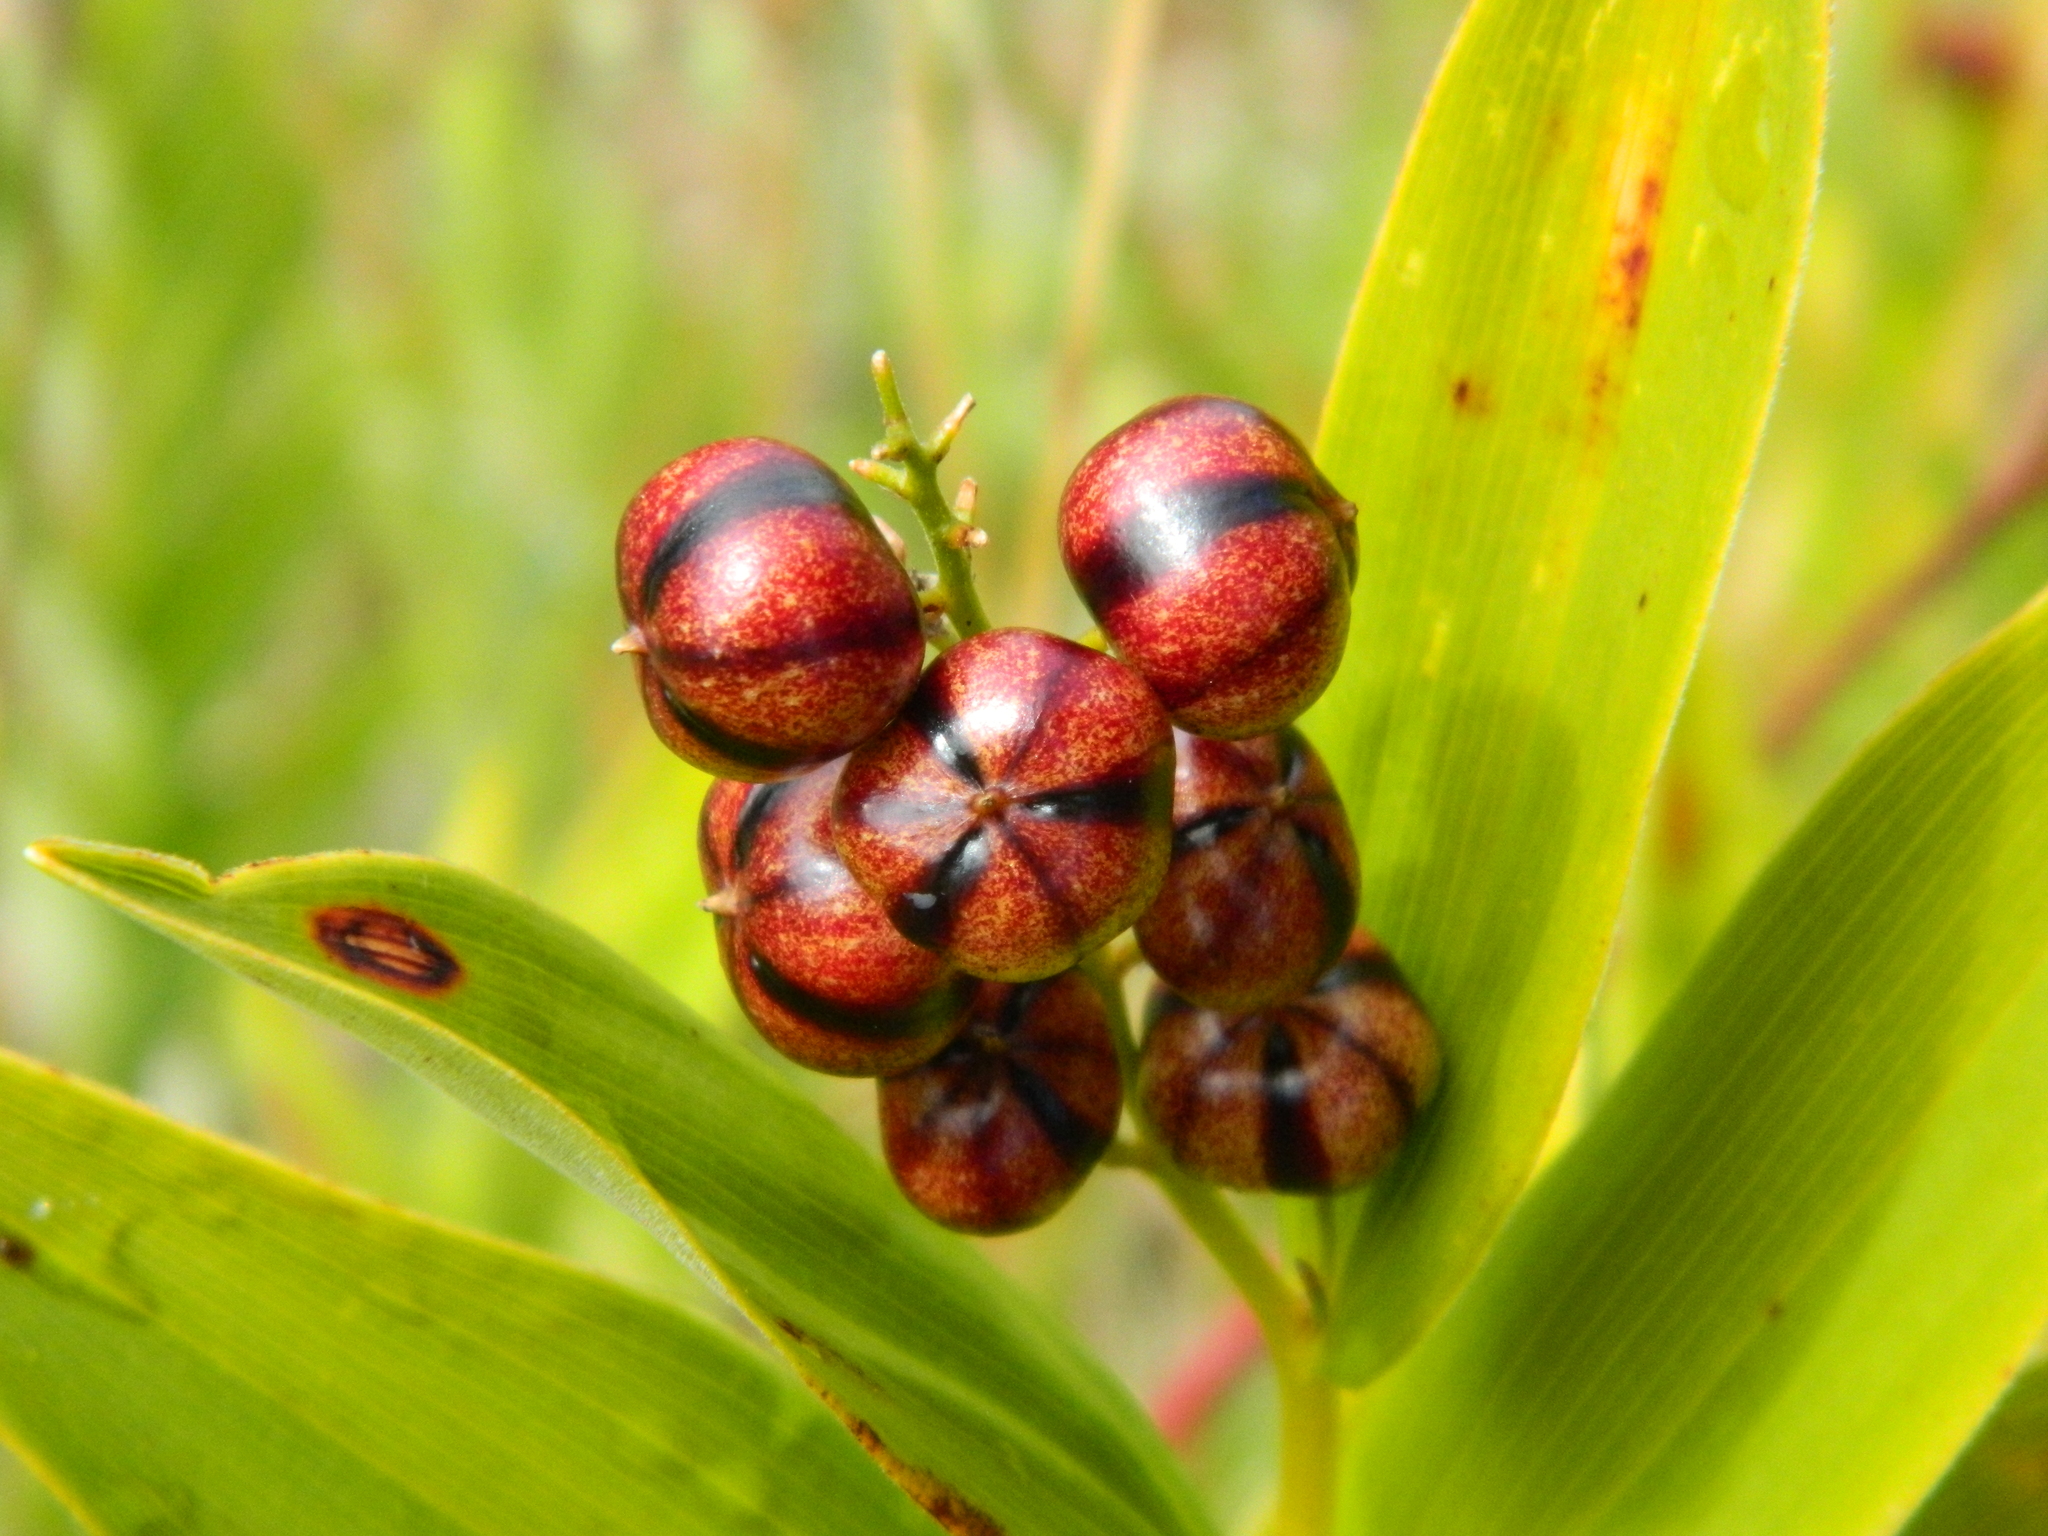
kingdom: Plantae
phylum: Tracheophyta
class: Liliopsida
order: Asparagales
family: Asparagaceae
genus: Maianthemum
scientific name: Maianthemum stellatum
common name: Little false solomon's seal
